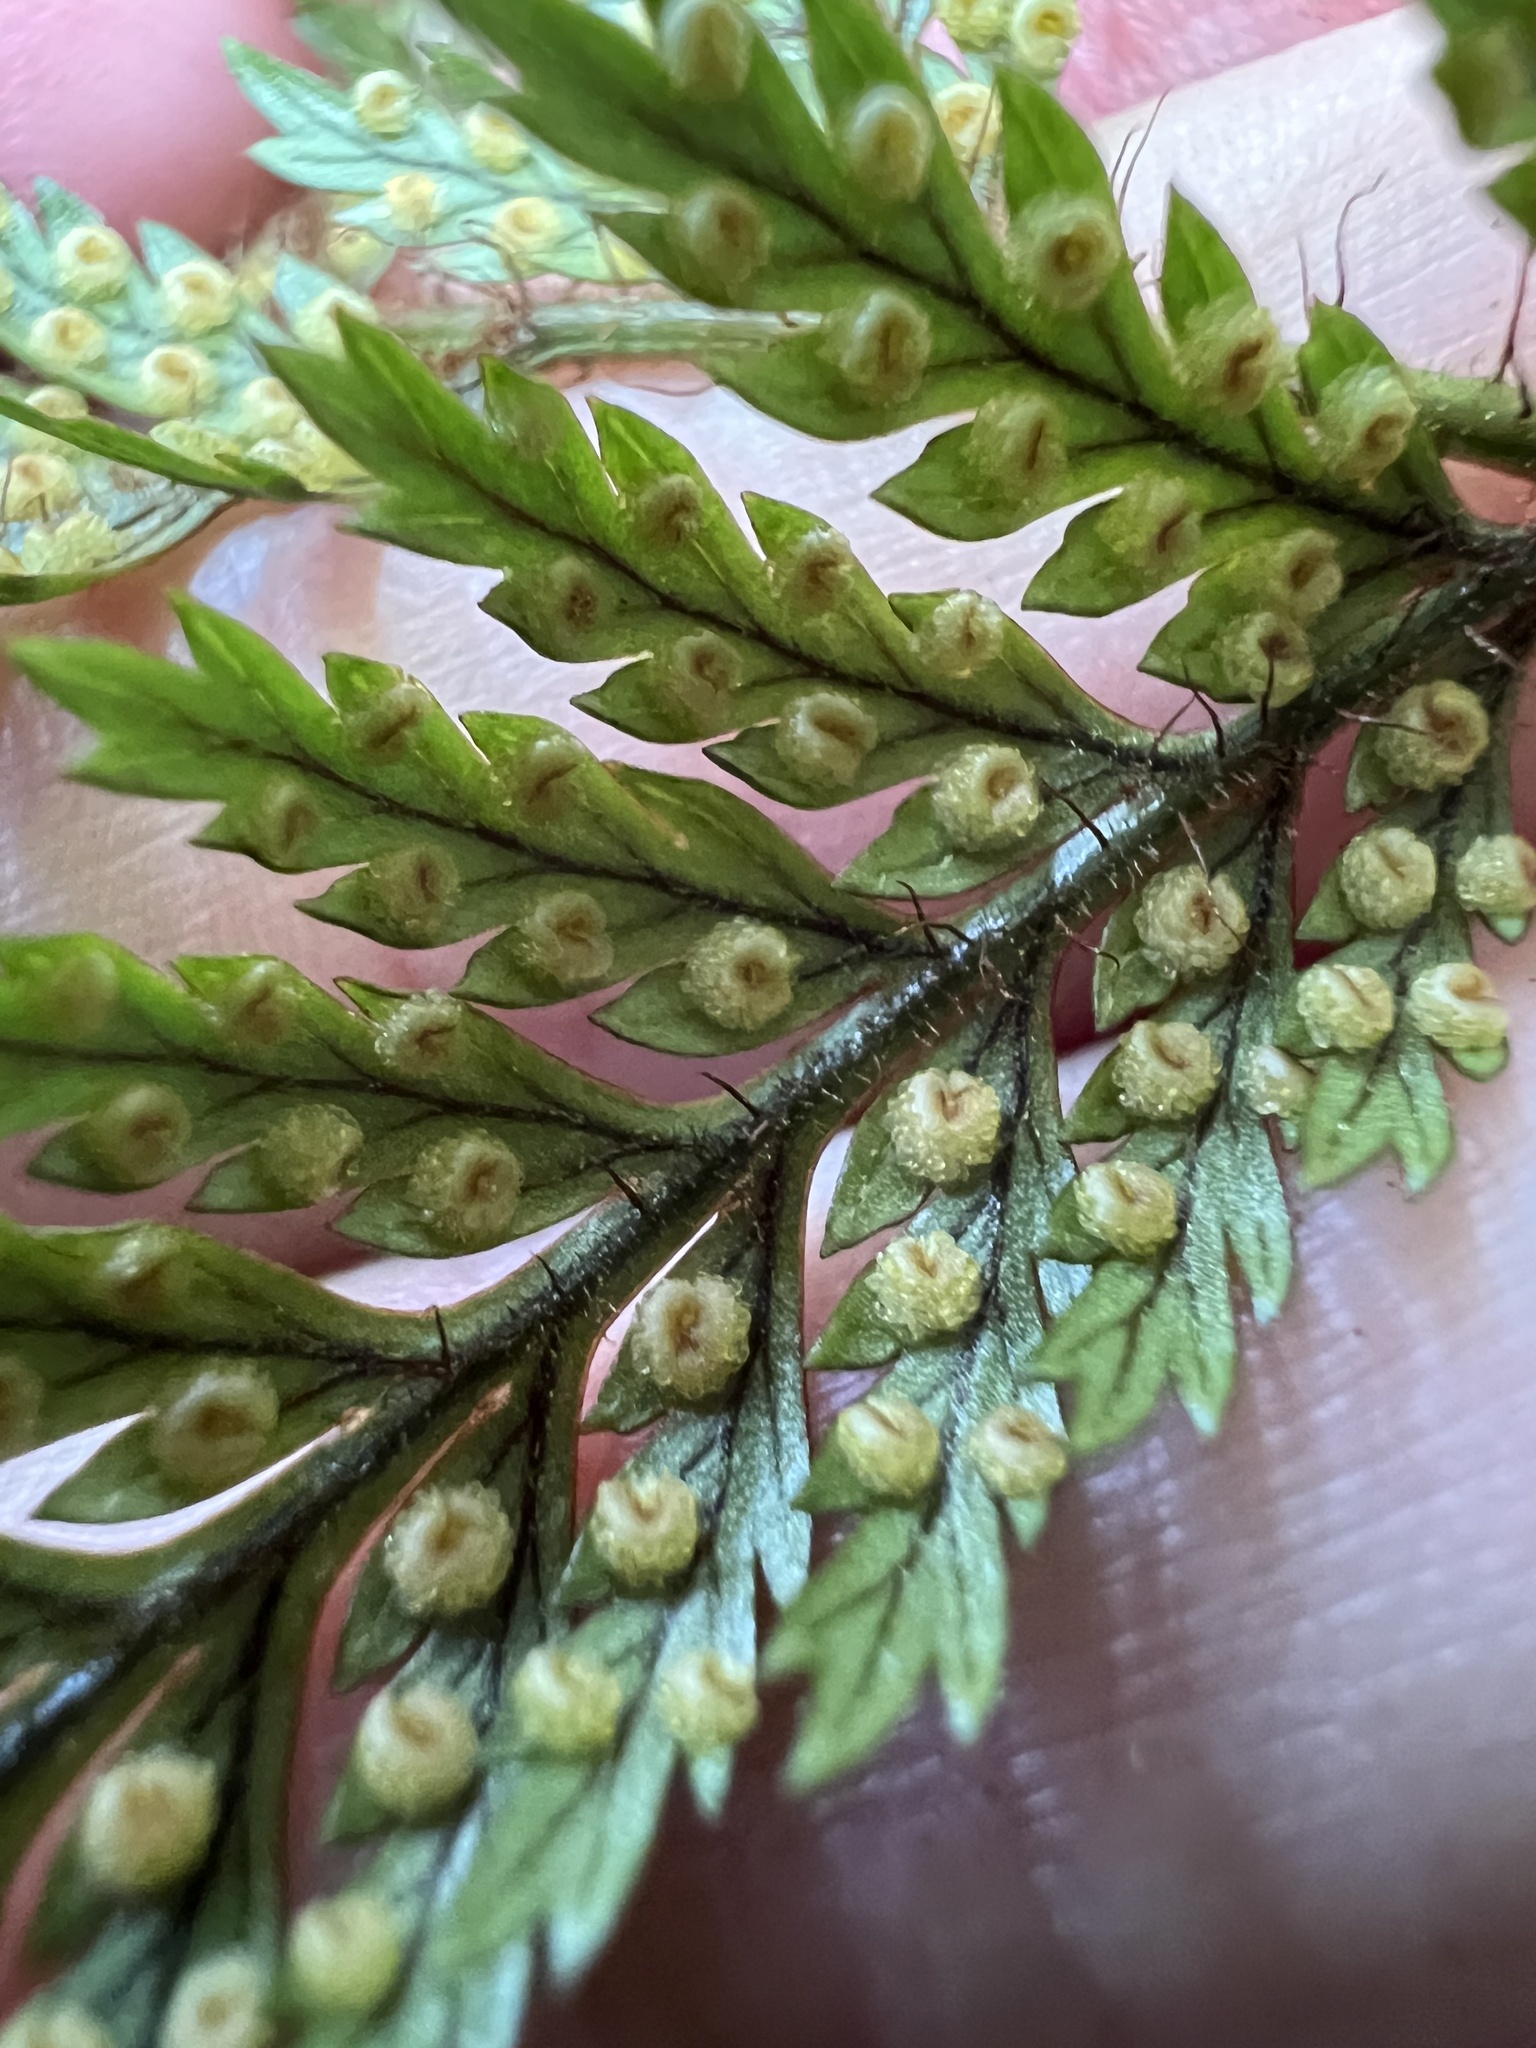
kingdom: Plantae
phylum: Tracheophyta
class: Polypodiopsida
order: Polypodiales
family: Dryopteridaceae
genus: Lastreopsis
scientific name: Lastreopsis hispida
